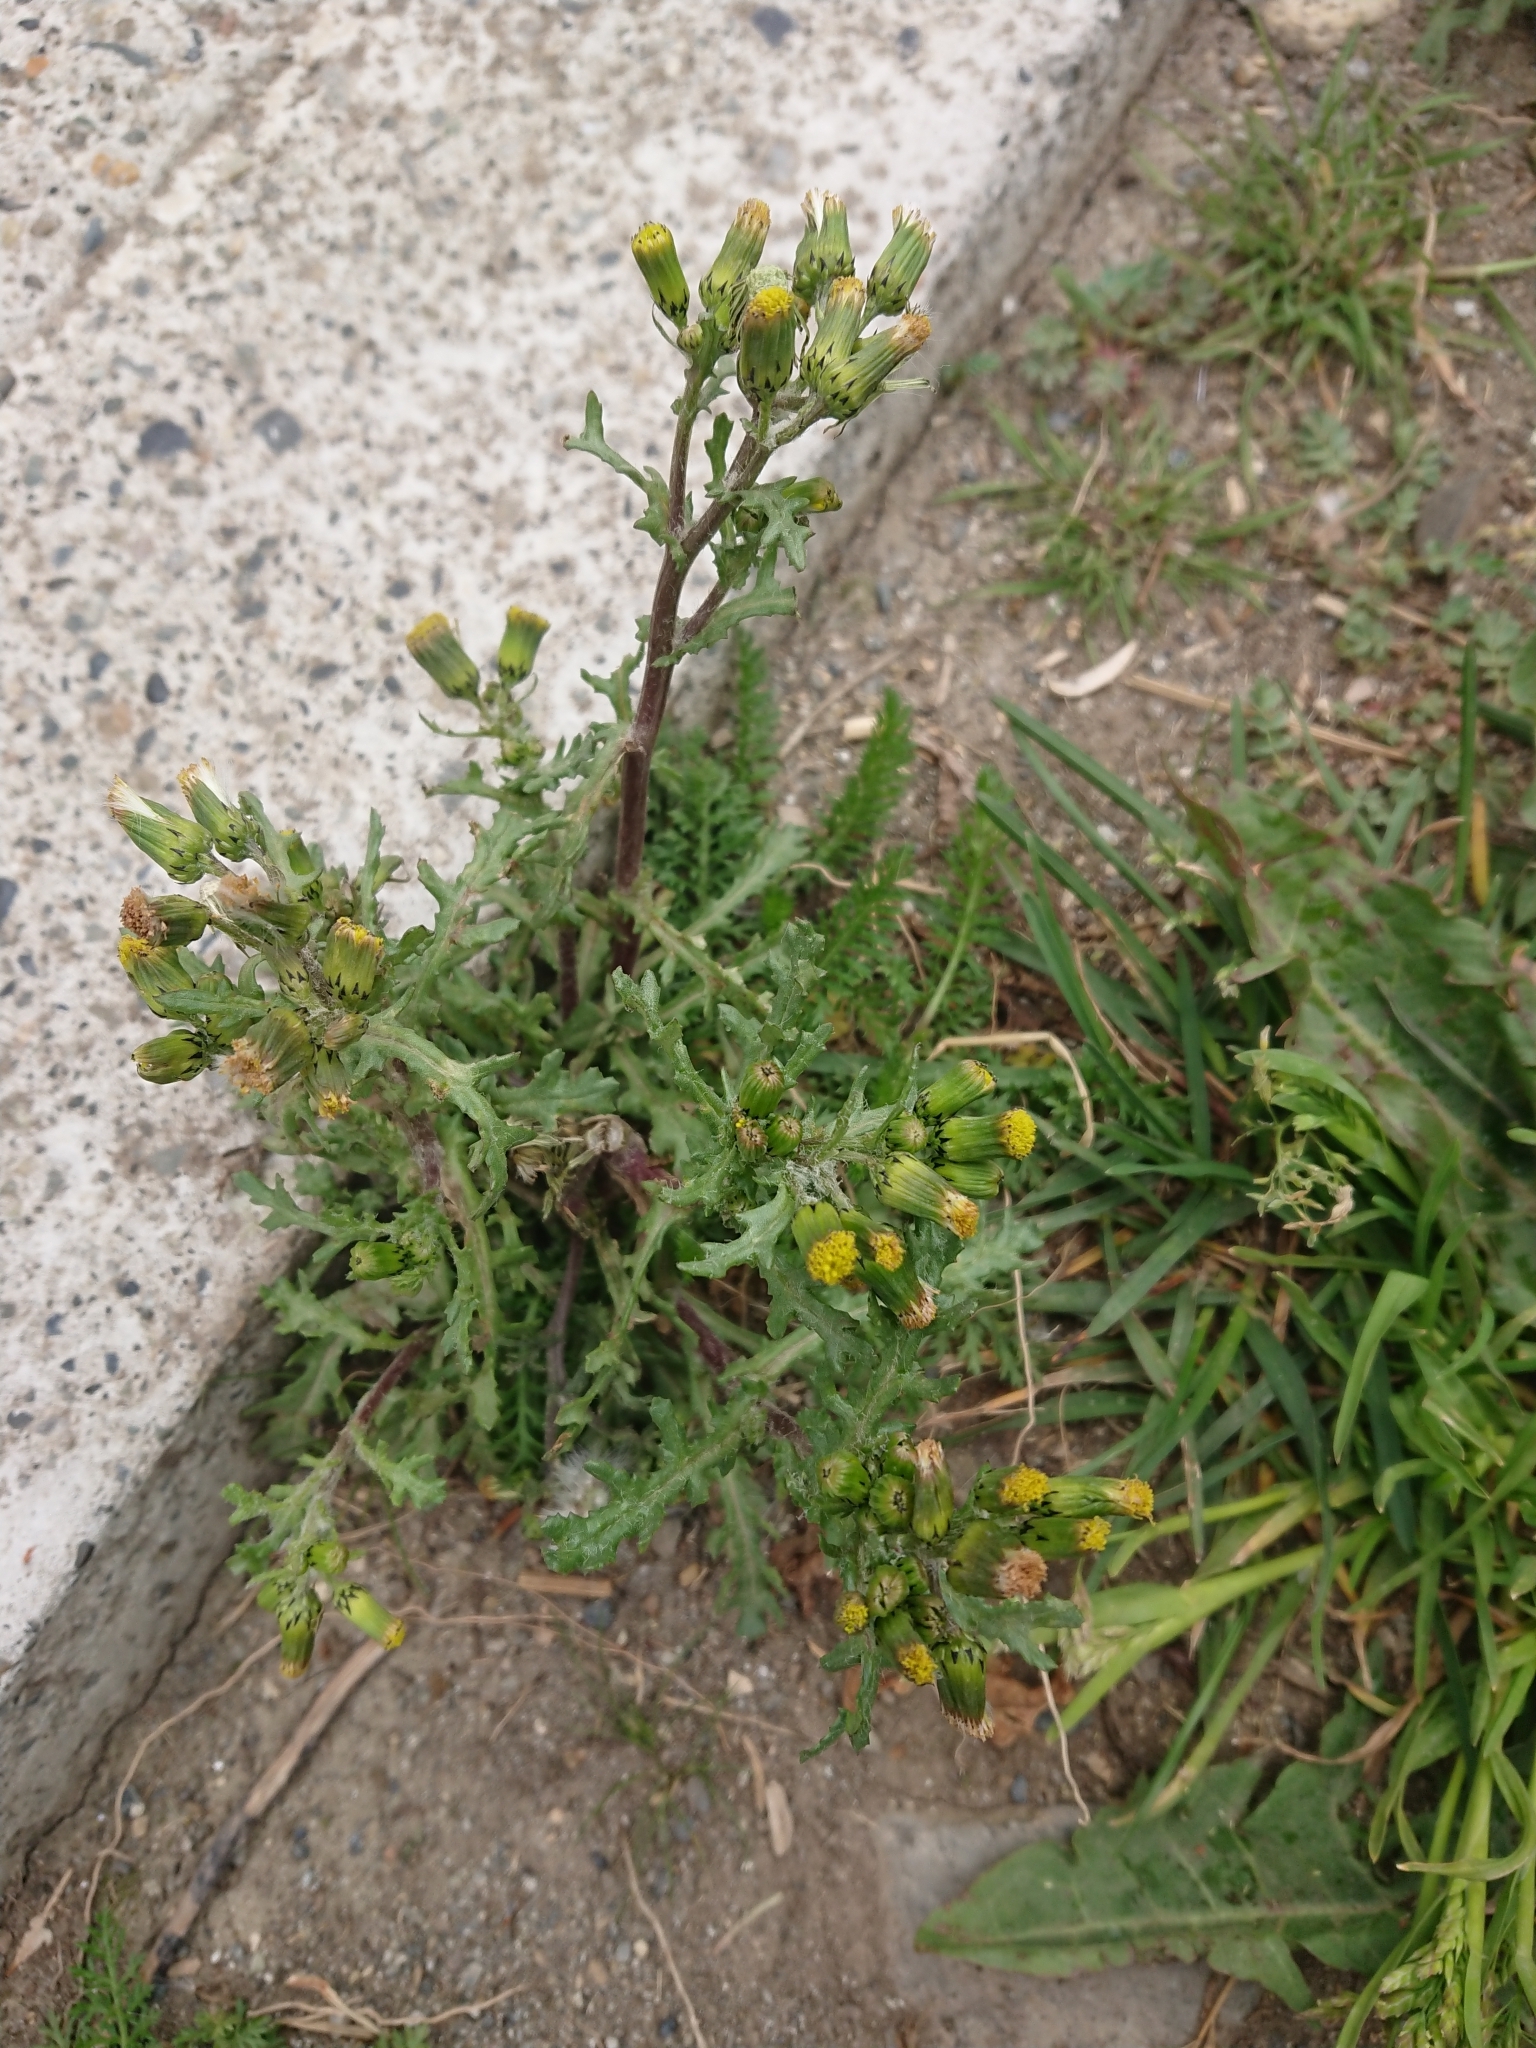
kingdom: Plantae
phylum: Tracheophyta
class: Magnoliopsida
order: Asterales
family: Asteraceae
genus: Senecio
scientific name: Senecio vulgaris
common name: Old-man-in-the-spring
